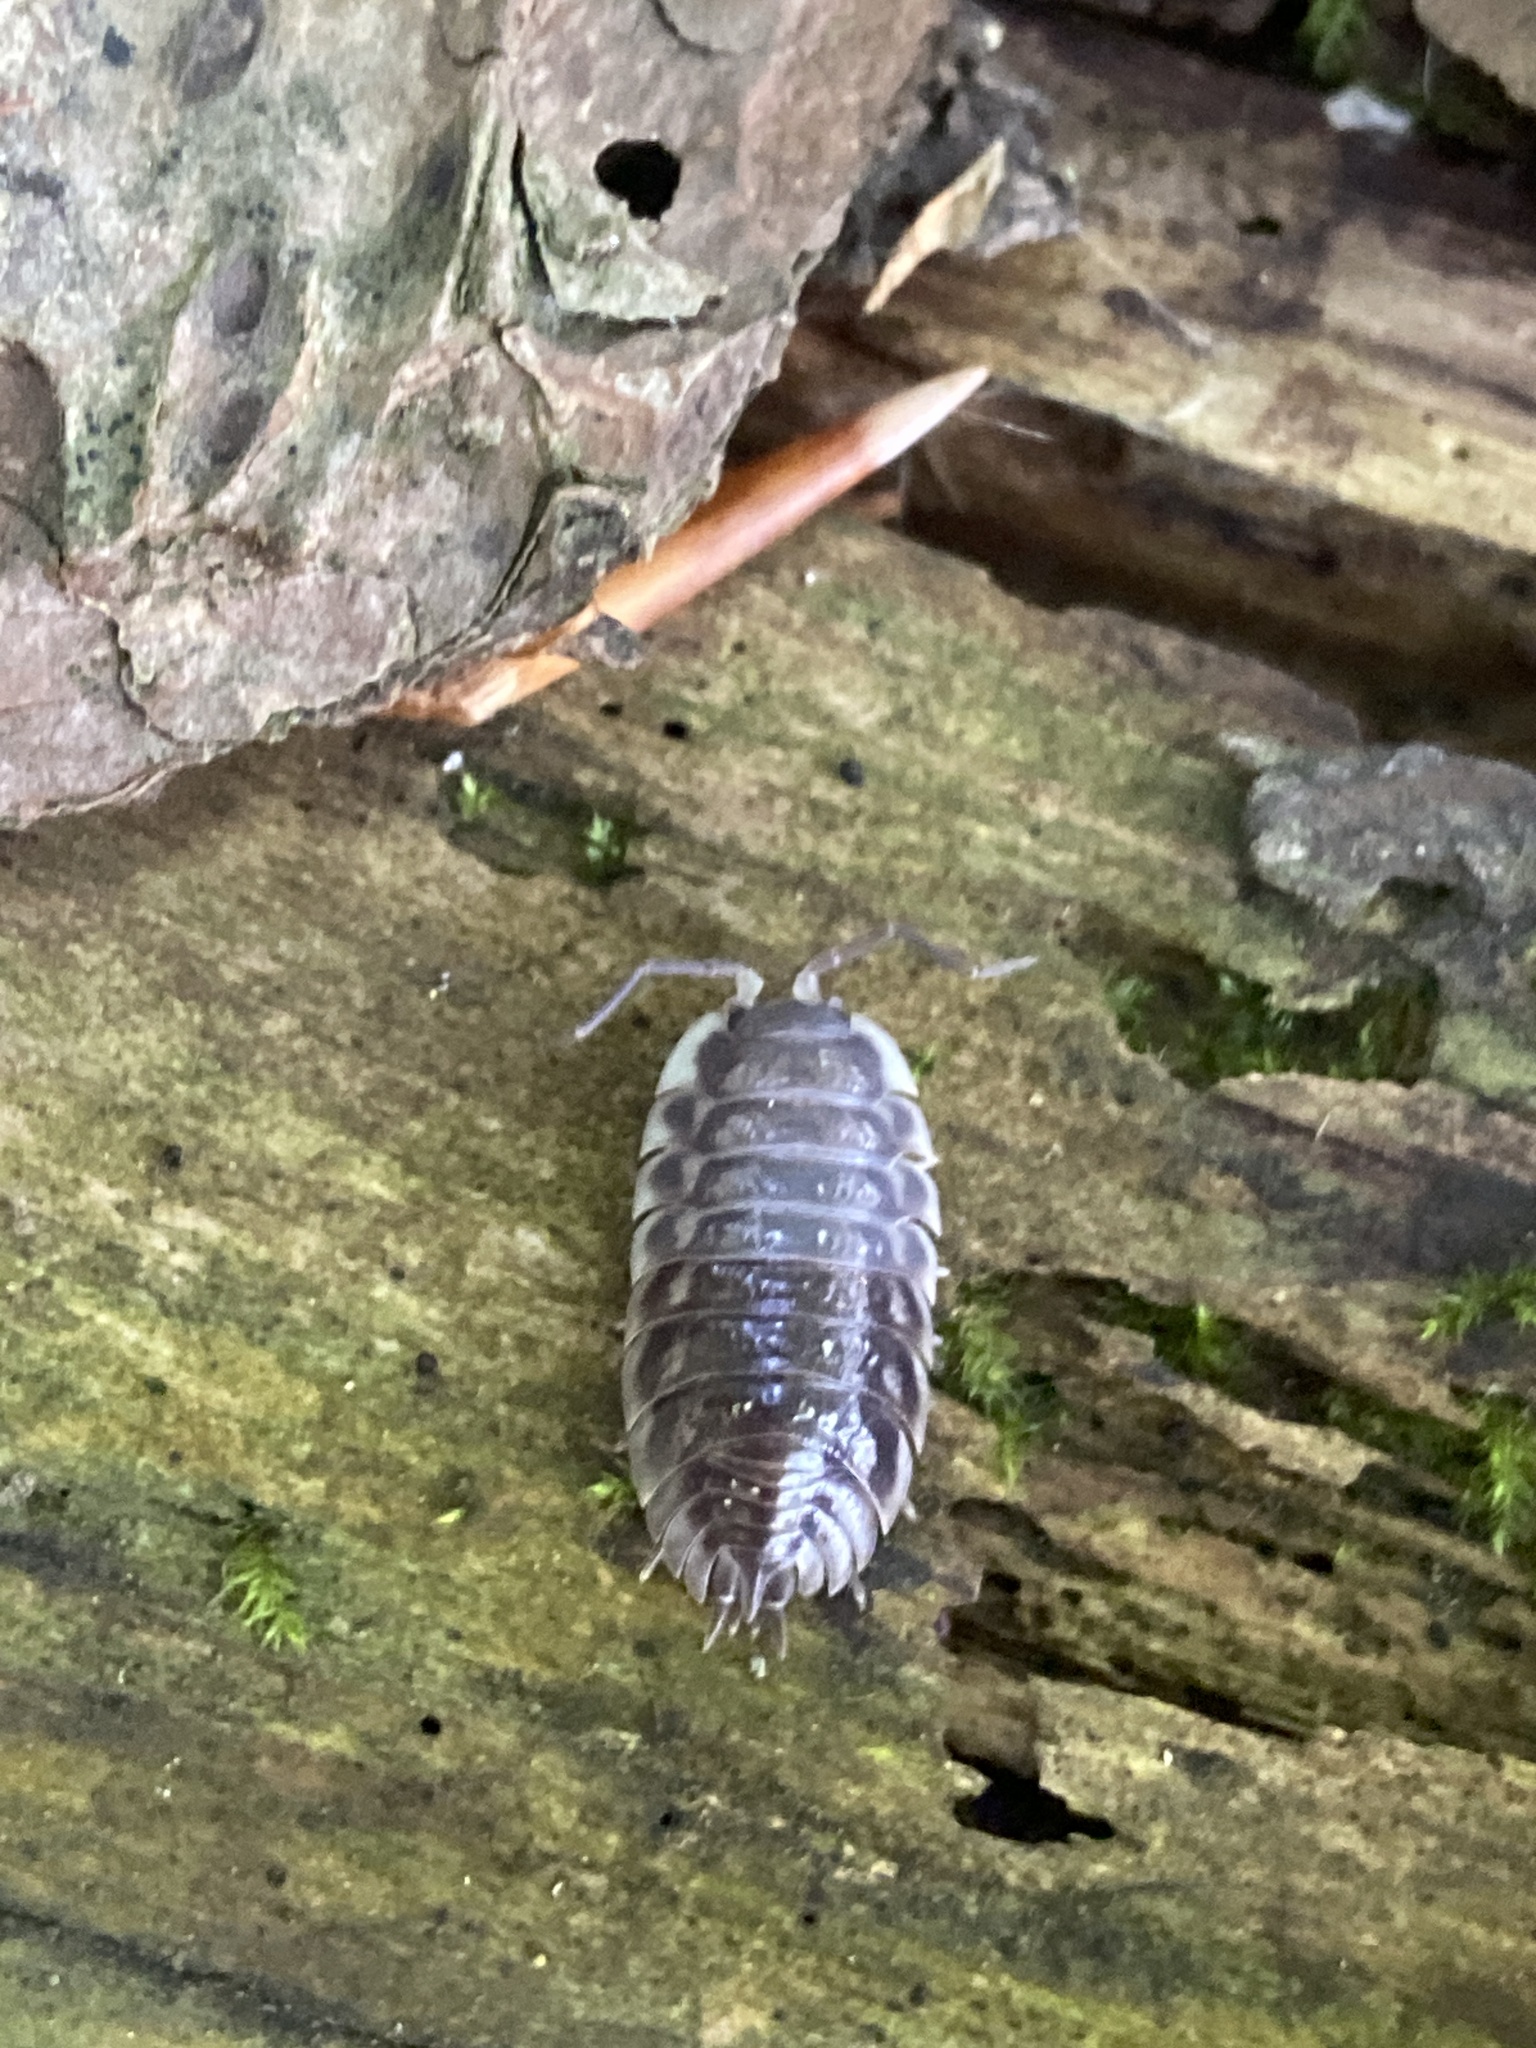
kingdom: Animalia
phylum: Arthropoda
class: Malacostraca
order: Isopoda
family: Oniscidae
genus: Oniscus
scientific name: Oniscus asellus
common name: Common shiny woodlouse
